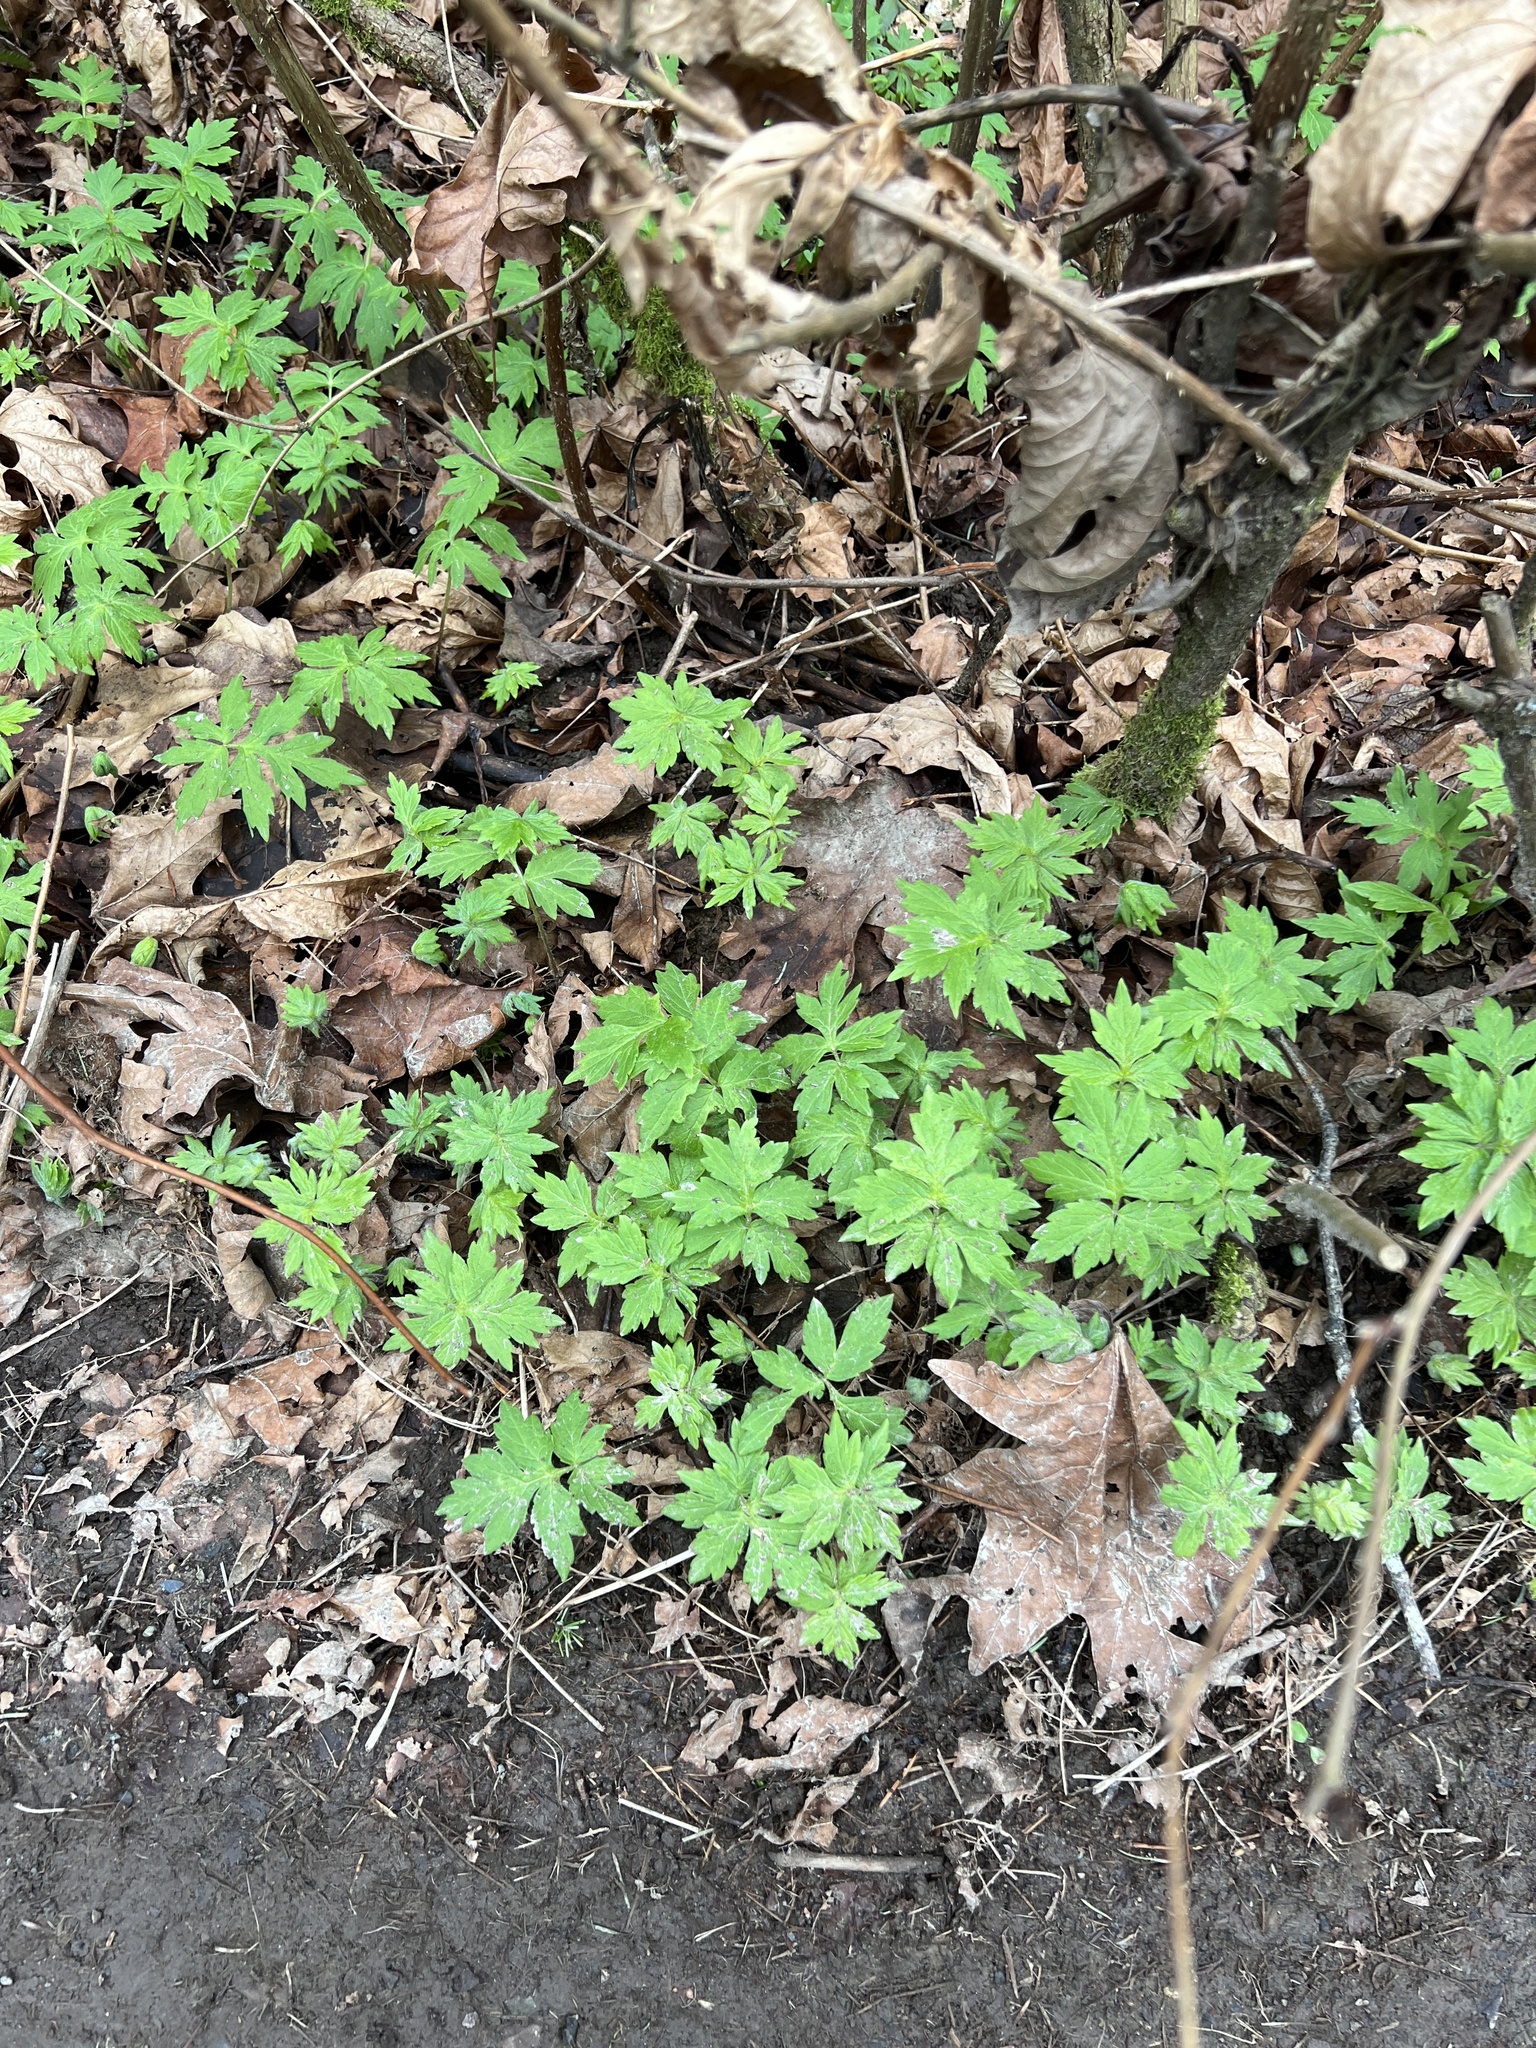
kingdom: Plantae
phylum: Tracheophyta
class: Magnoliopsida
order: Boraginales
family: Hydrophyllaceae
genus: Hydrophyllum
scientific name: Hydrophyllum tenuipes
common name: Pacific waterleaf
